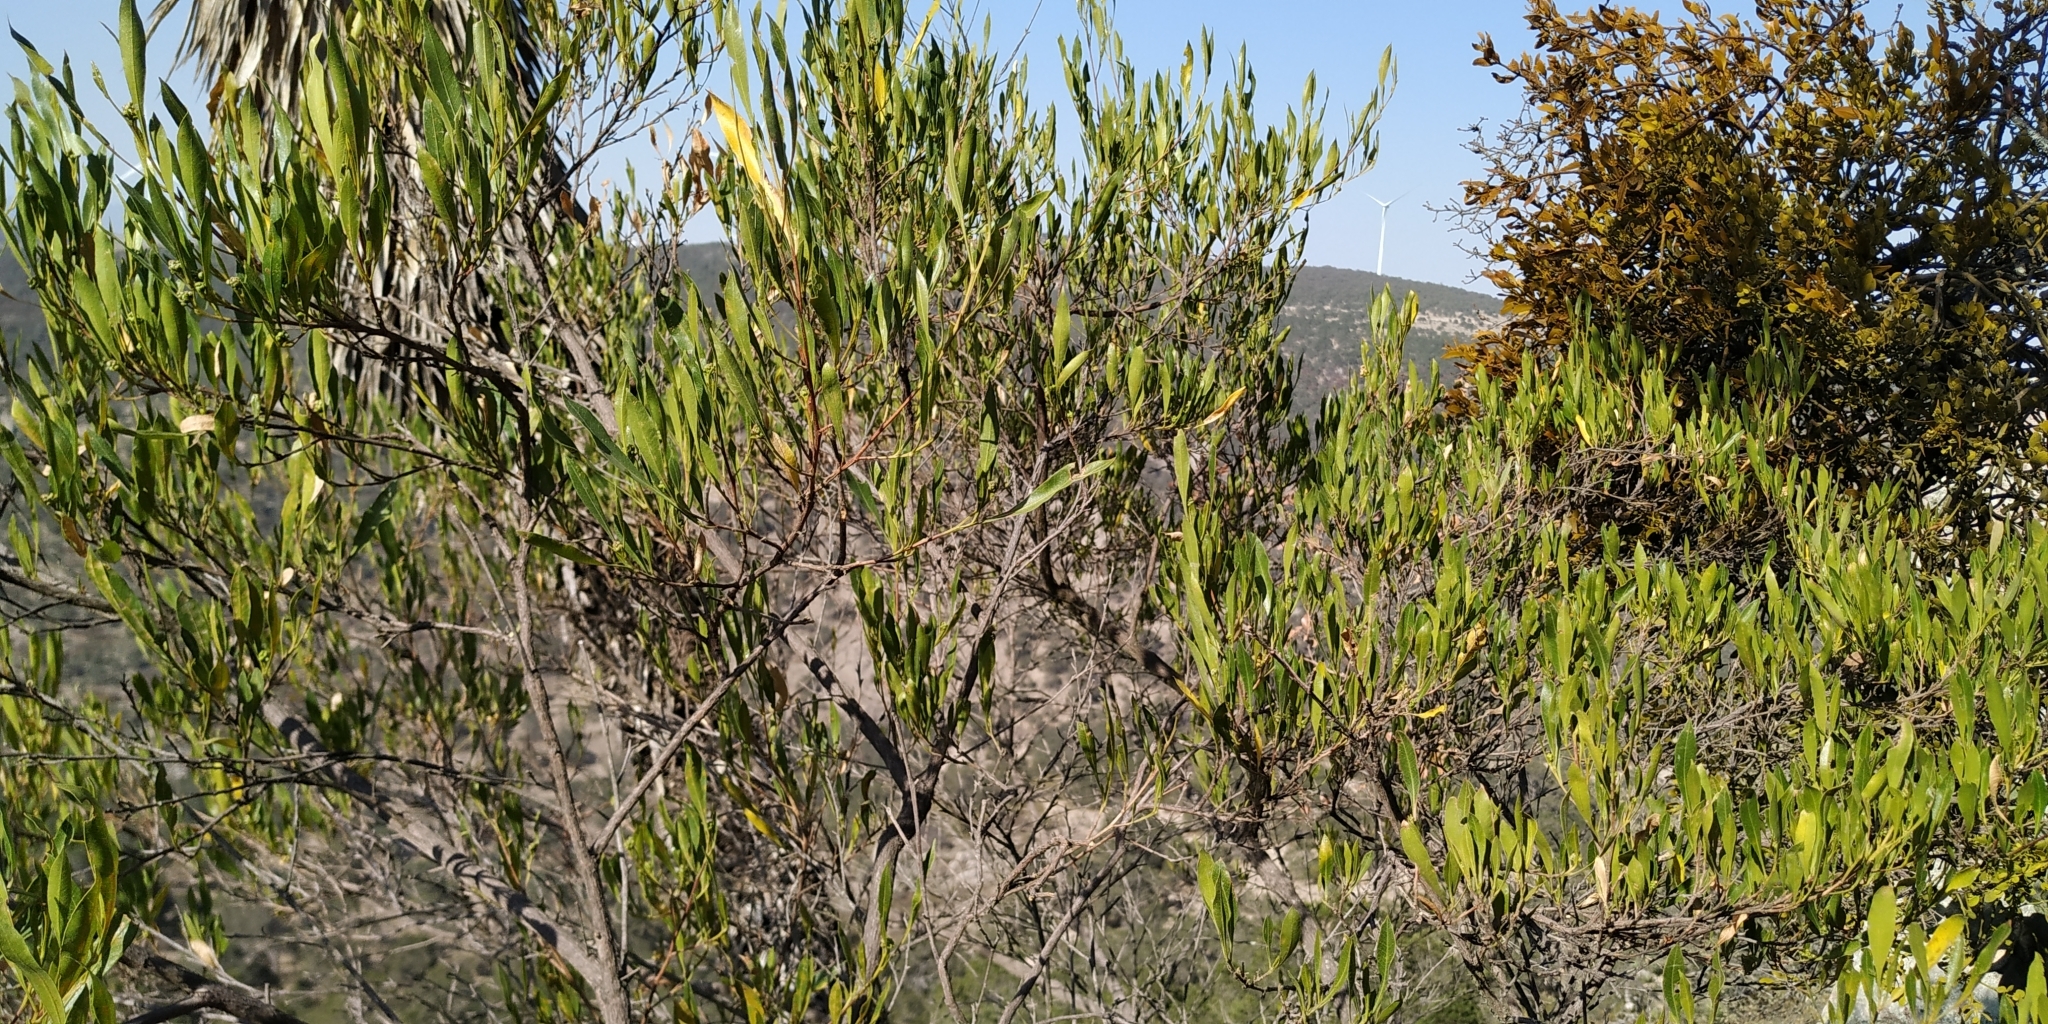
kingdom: Plantae
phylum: Tracheophyta
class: Magnoliopsida
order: Sapindales
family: Sapindaceae
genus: Dodonaea
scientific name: Dodonaea viscosa
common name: Hopbush
